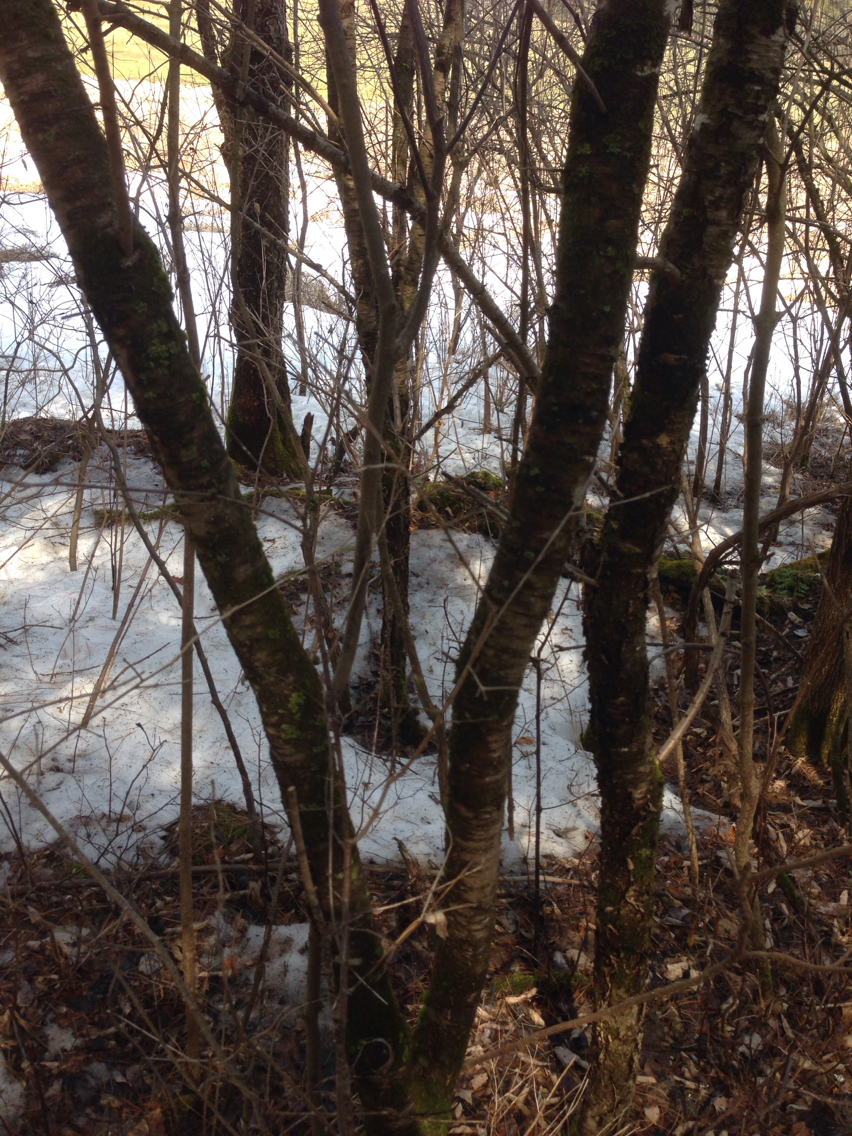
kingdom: Plantae
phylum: Tracheophyta
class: Magnoliopsida
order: Rosales
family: Rhamnaceae
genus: Rhamnus
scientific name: Rhamnus cathartica
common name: Common buckthorn
